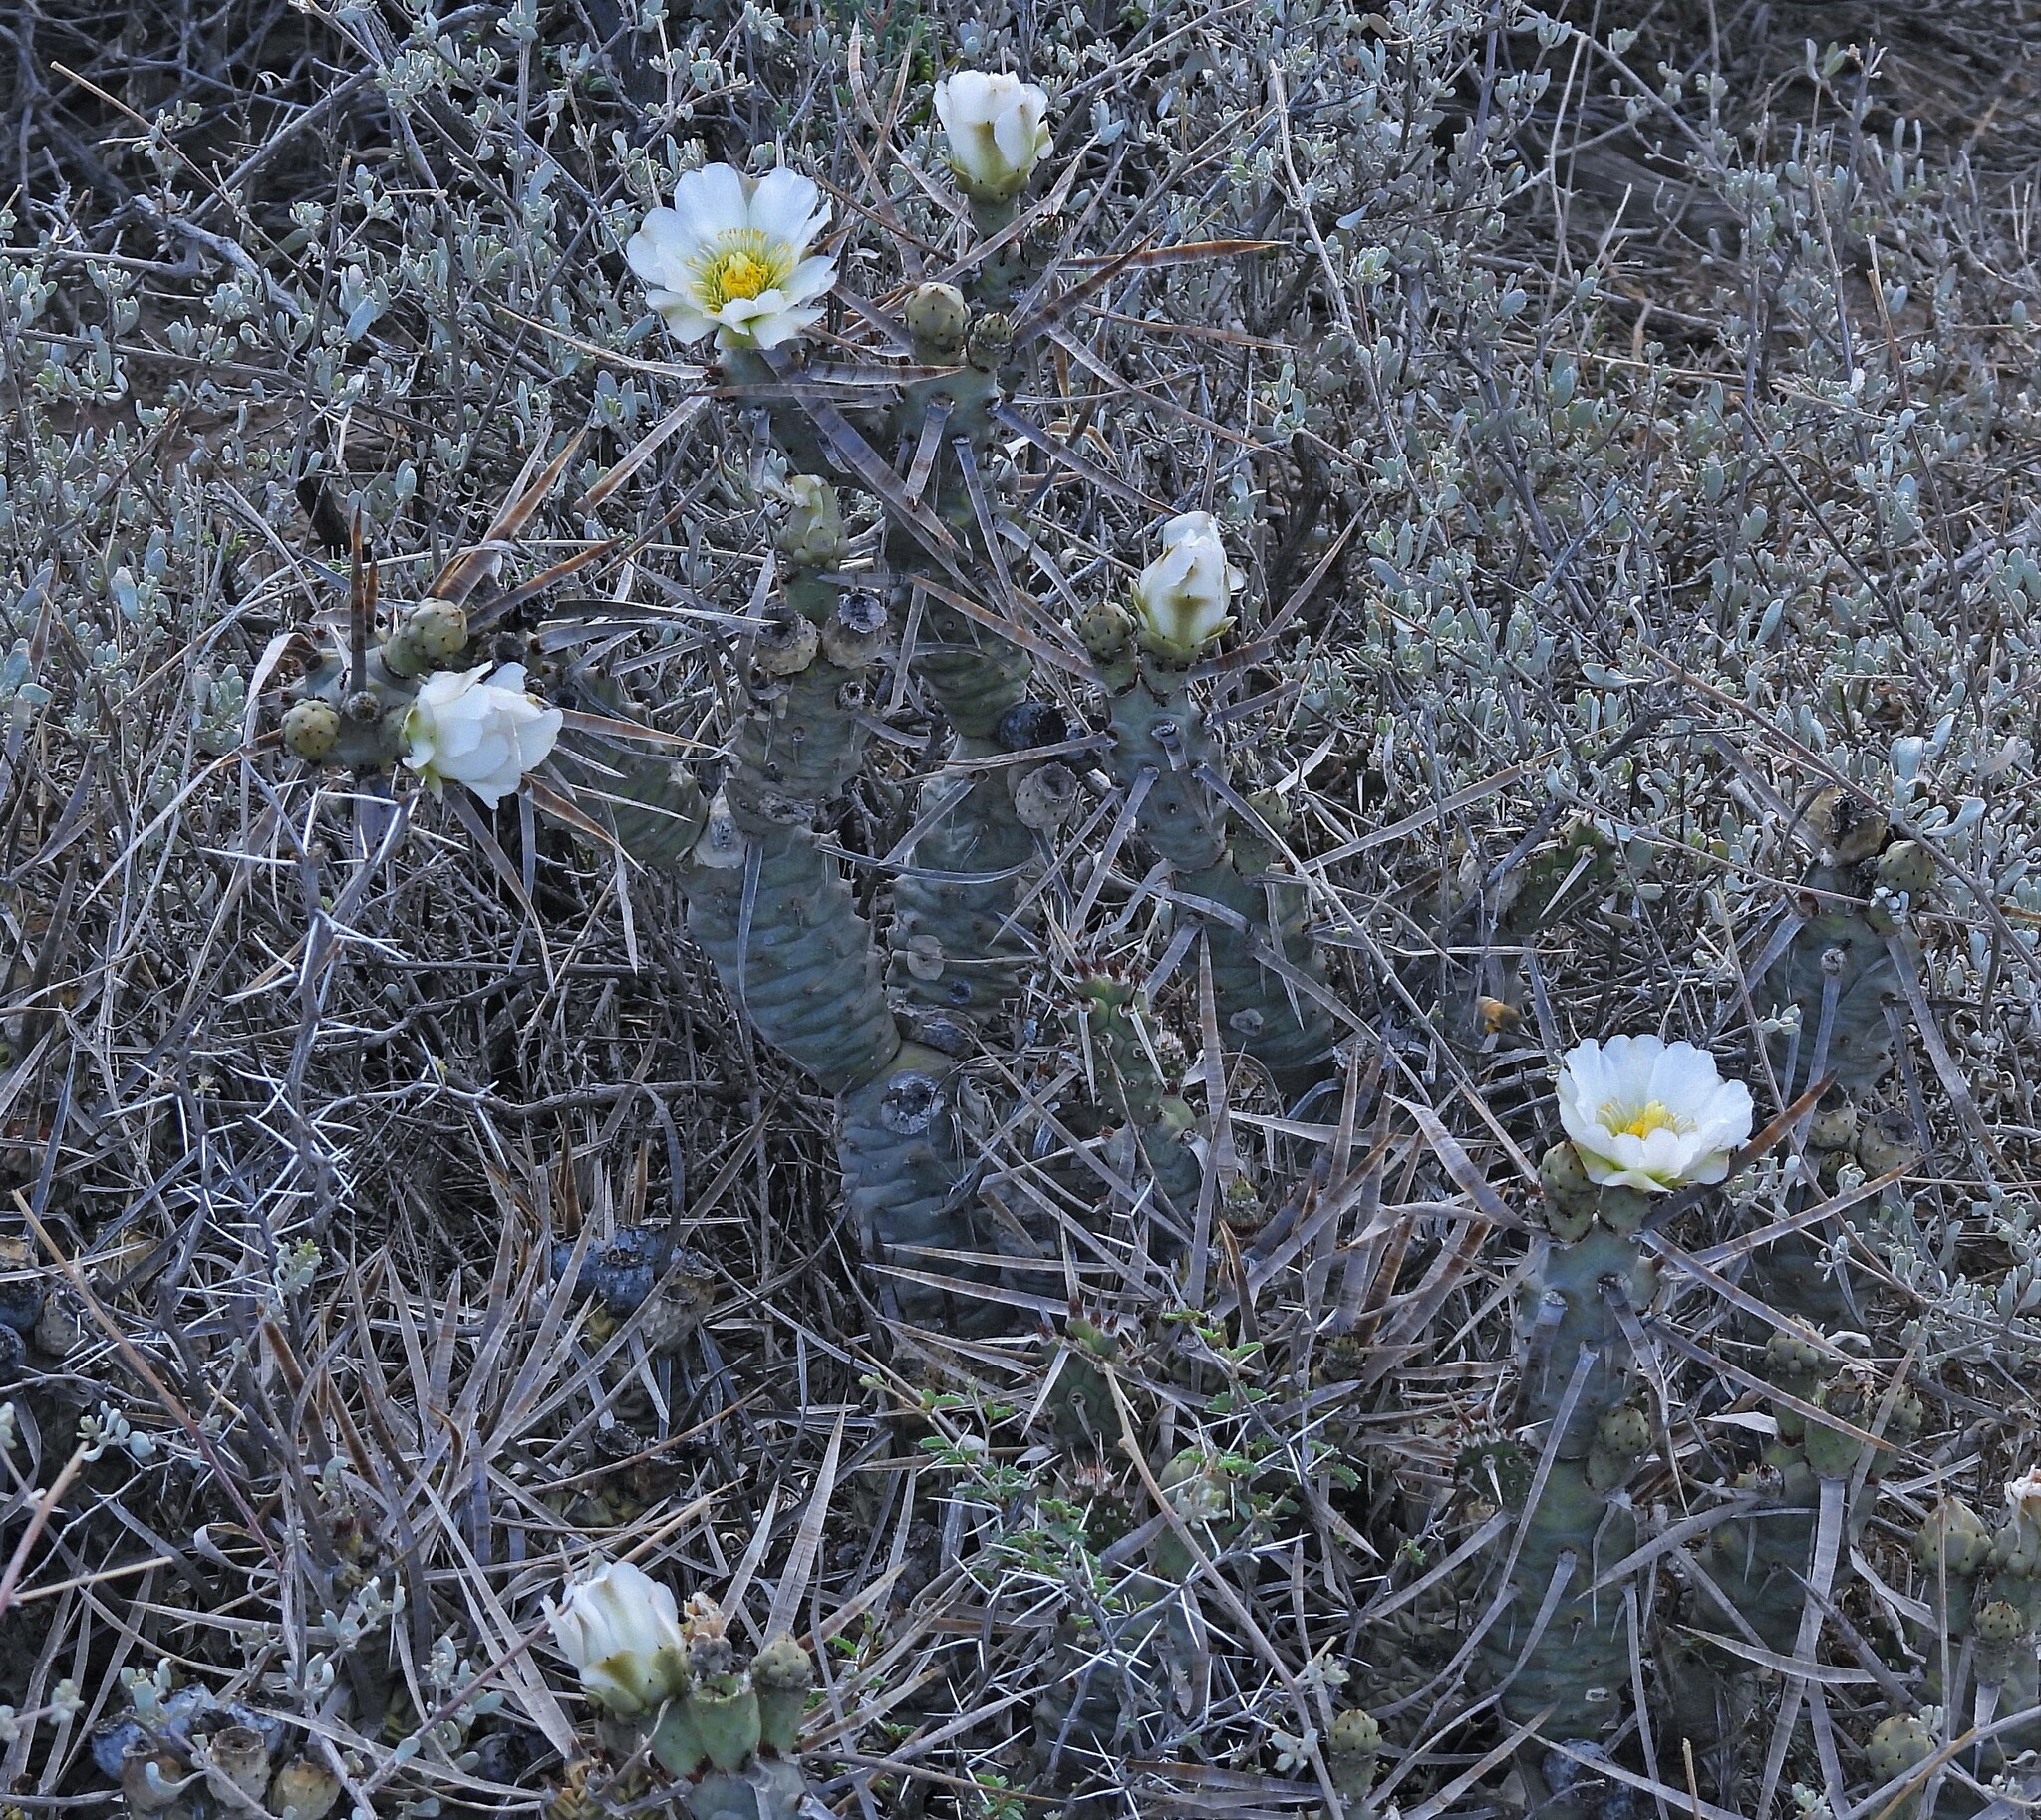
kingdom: Plantae
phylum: Tracheophyta
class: Magnoliopsida
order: Caryophyllales
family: Cactaceae
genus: Tephrocactus
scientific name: Tephrocactus articulatus
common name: Paper cactus
